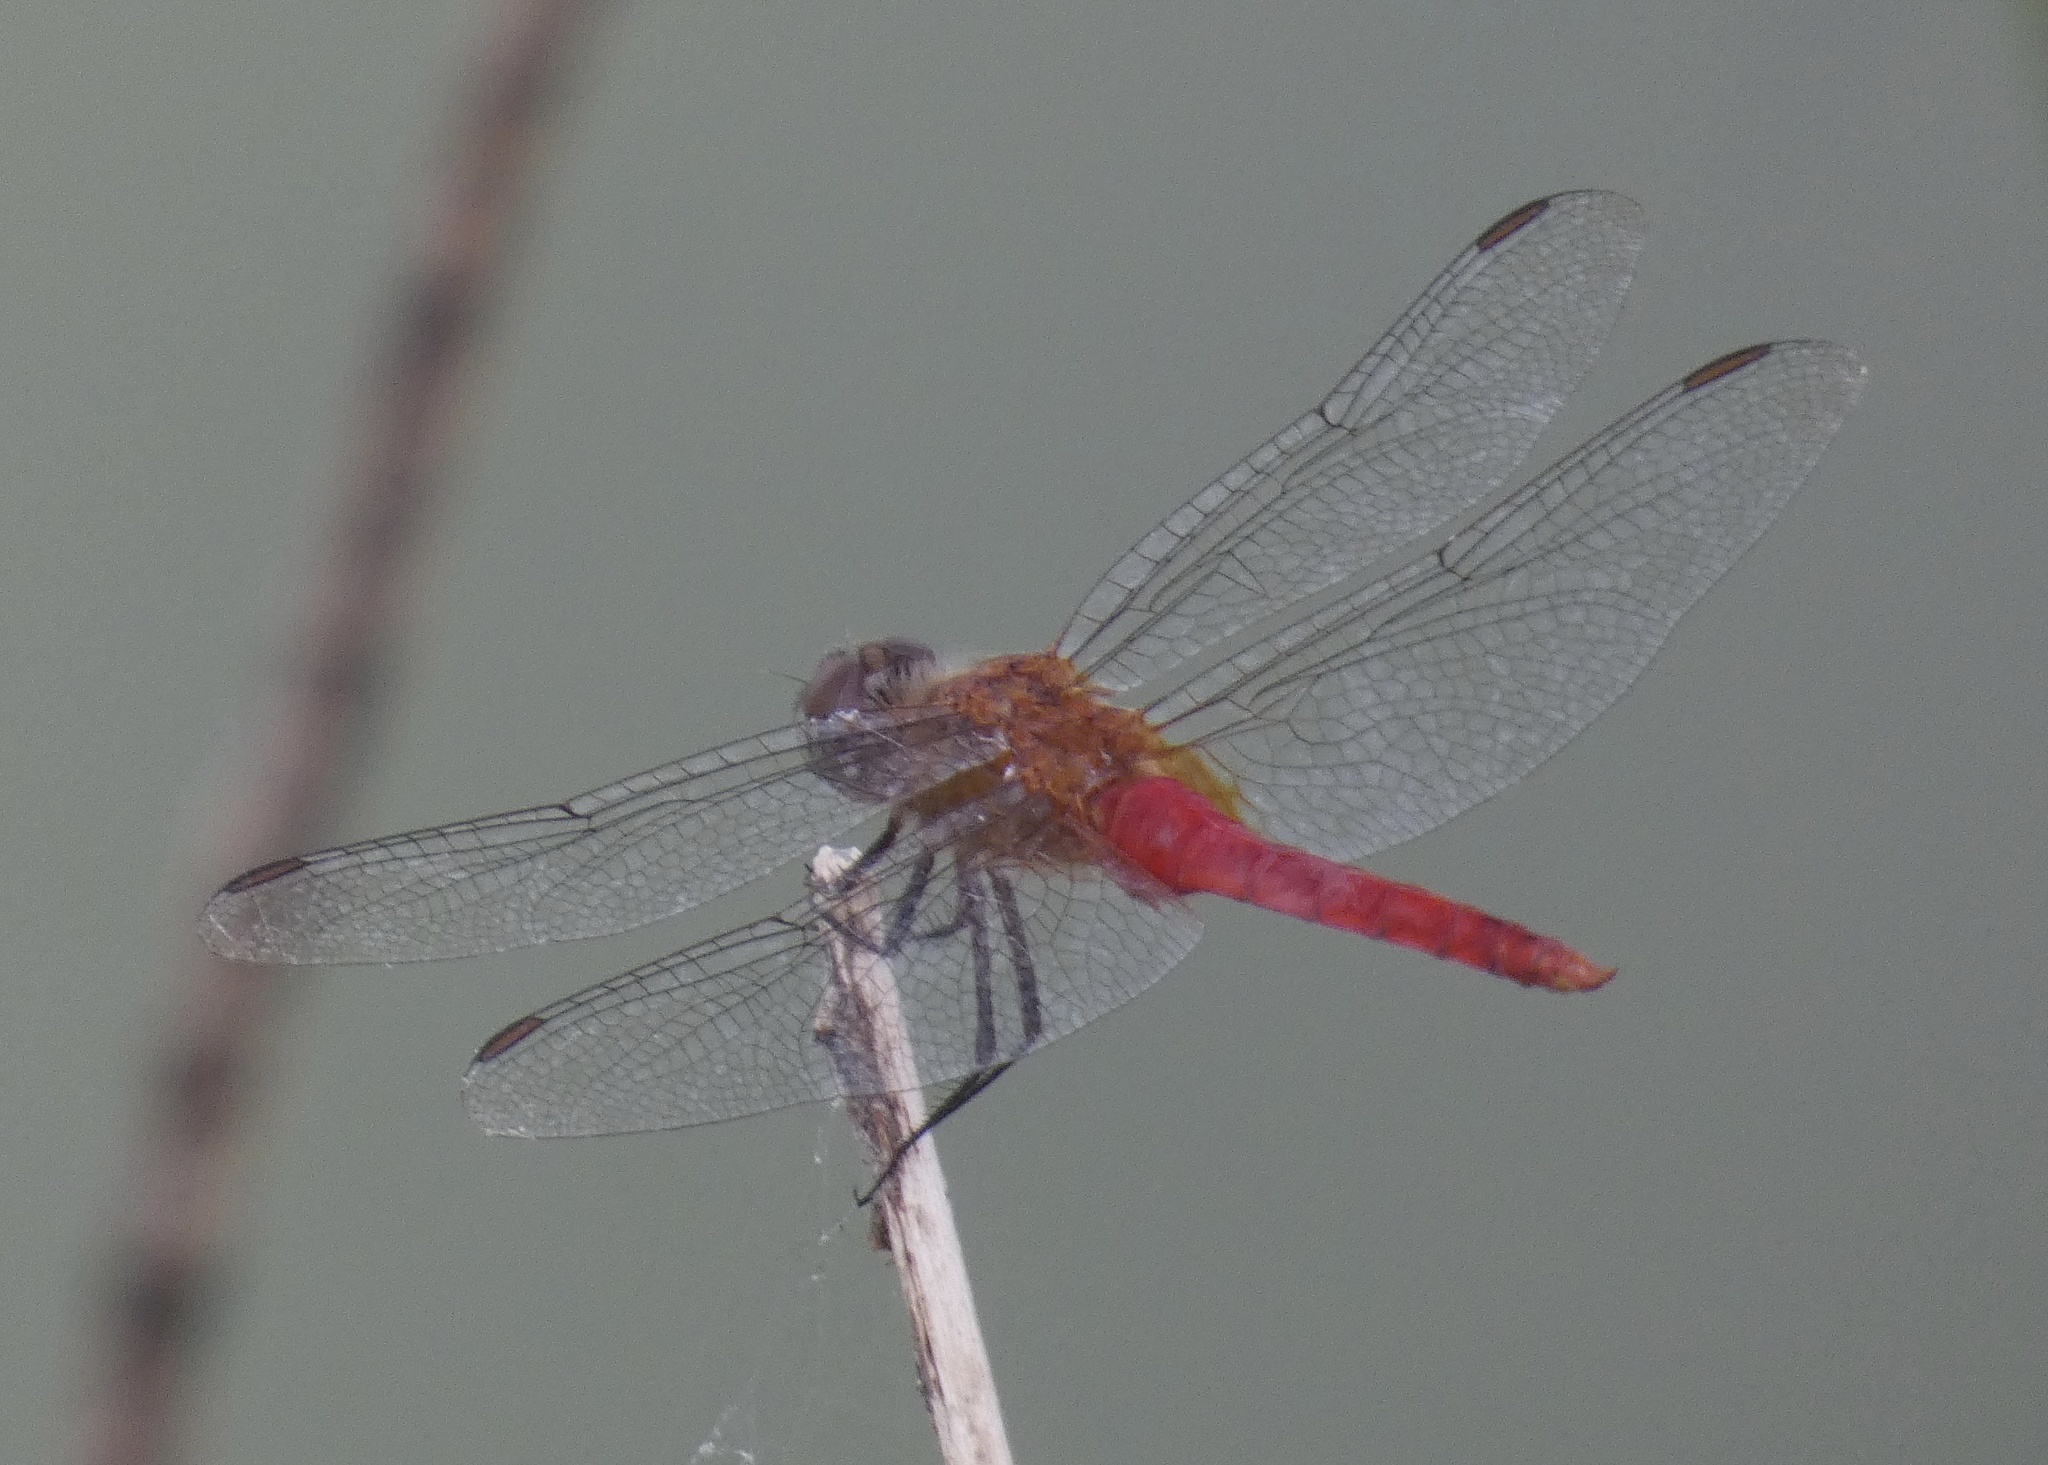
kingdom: Animalia
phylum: Arthropoda
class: Insecta
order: Odonata
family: Libellulidae
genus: Brachymesia
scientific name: Brachymesia furcata
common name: Red-taled pennant
